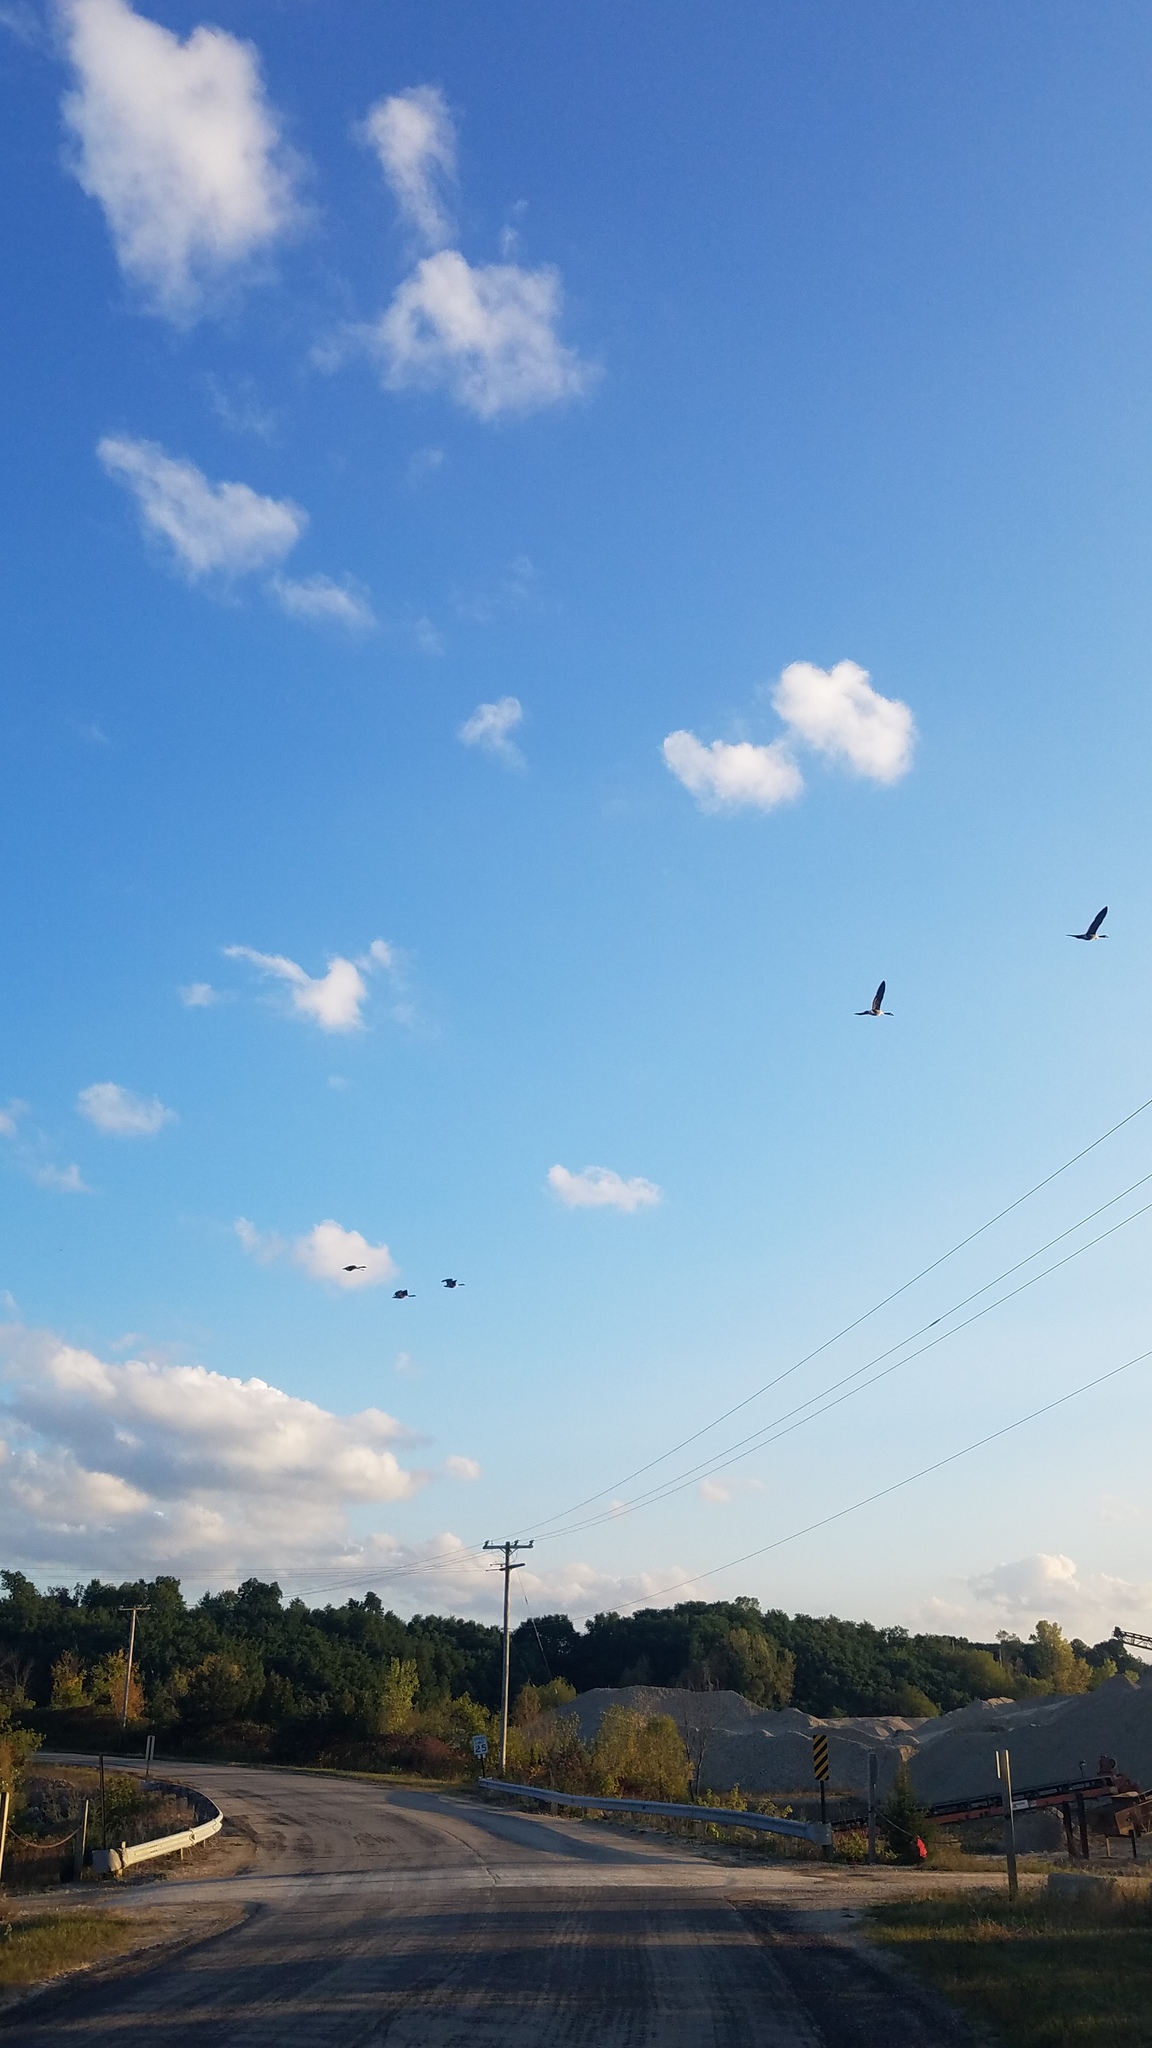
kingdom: Animalia
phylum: Chordata
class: Aves
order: Anseriformes
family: Anatidae
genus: Branta
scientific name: Branta canadensis
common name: Canada goose
